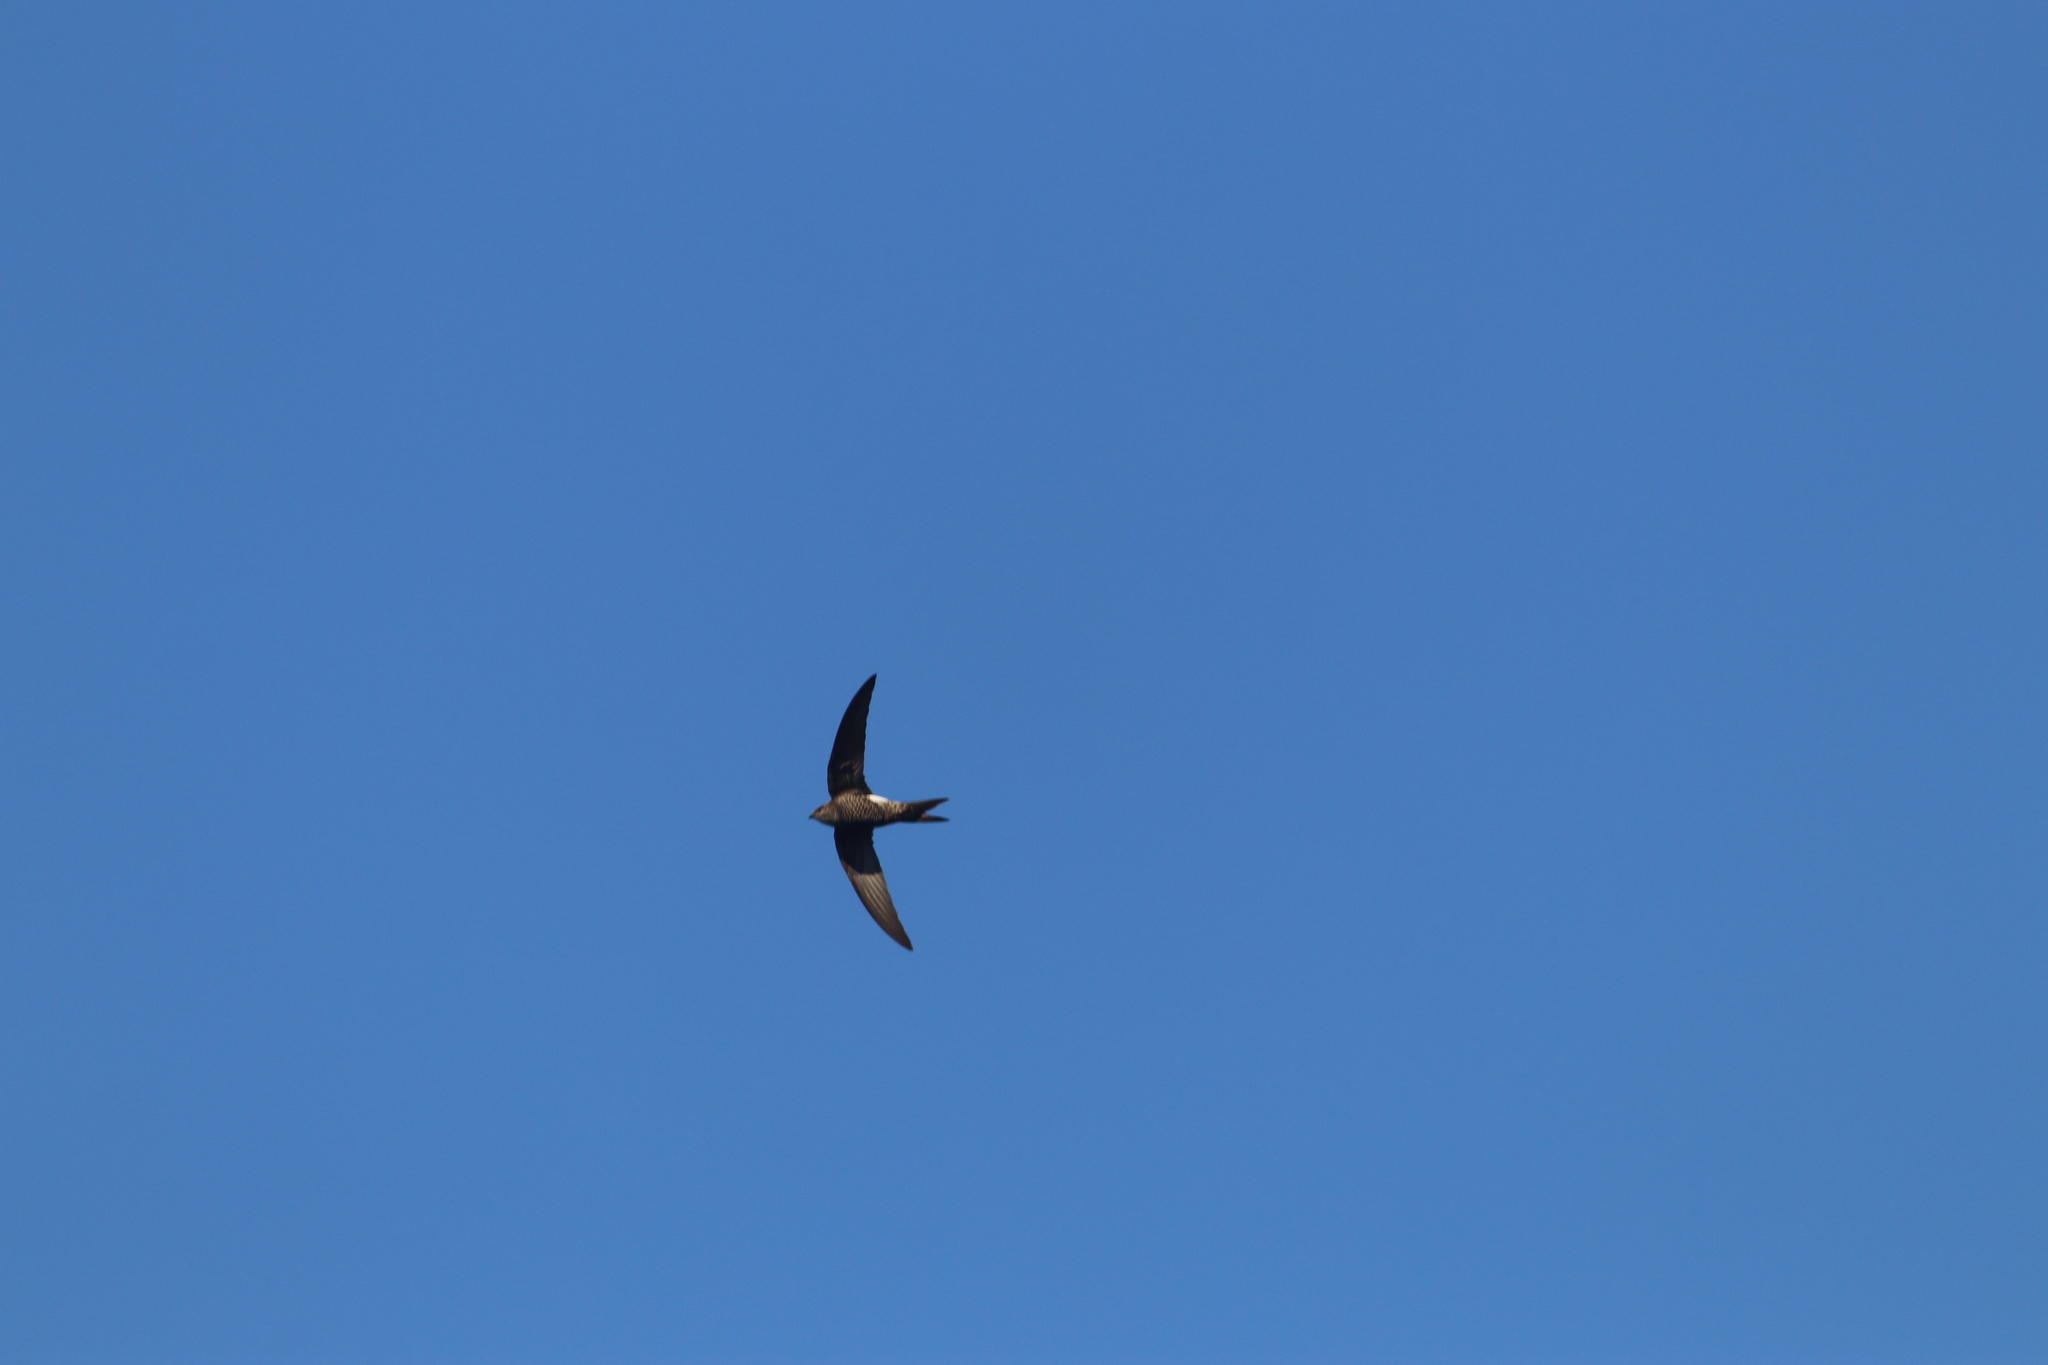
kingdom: Animalia
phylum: Chordata
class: Aves
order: Apodiformes
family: Apodidae
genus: Apus
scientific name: Apus pacificus
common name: Pacific swift
